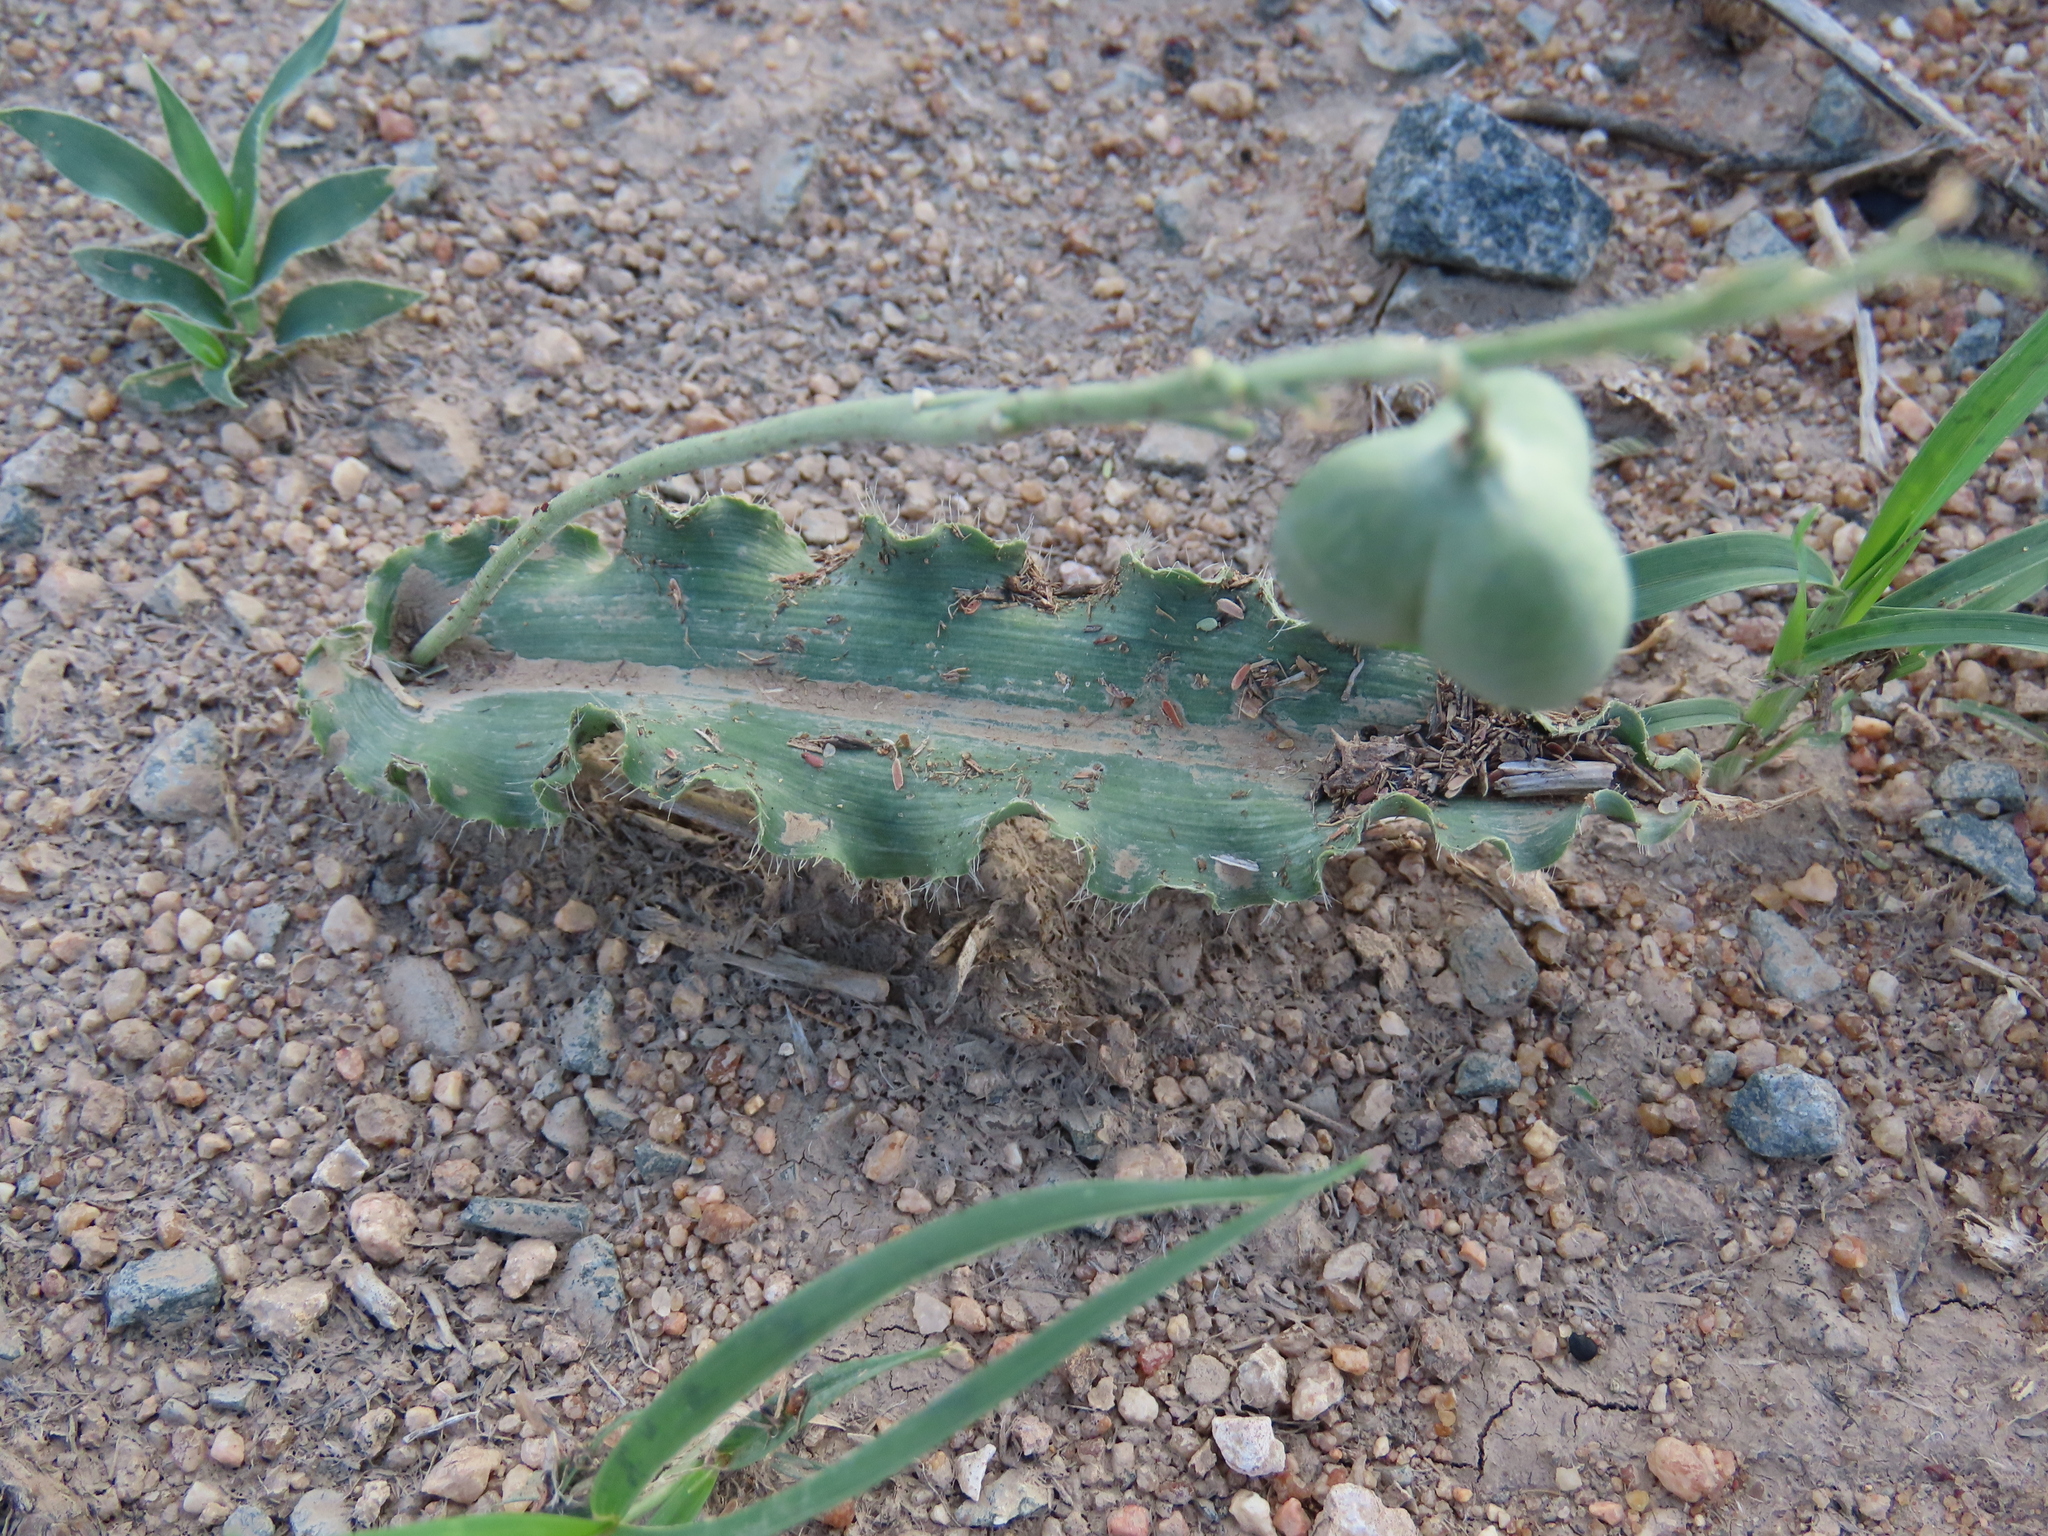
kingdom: Plantae
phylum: Tracheophyta
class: Liliopsida
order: Asparagales
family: Asparagaceae
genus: Dipcadi
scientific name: Dipcadi platyphyllum
